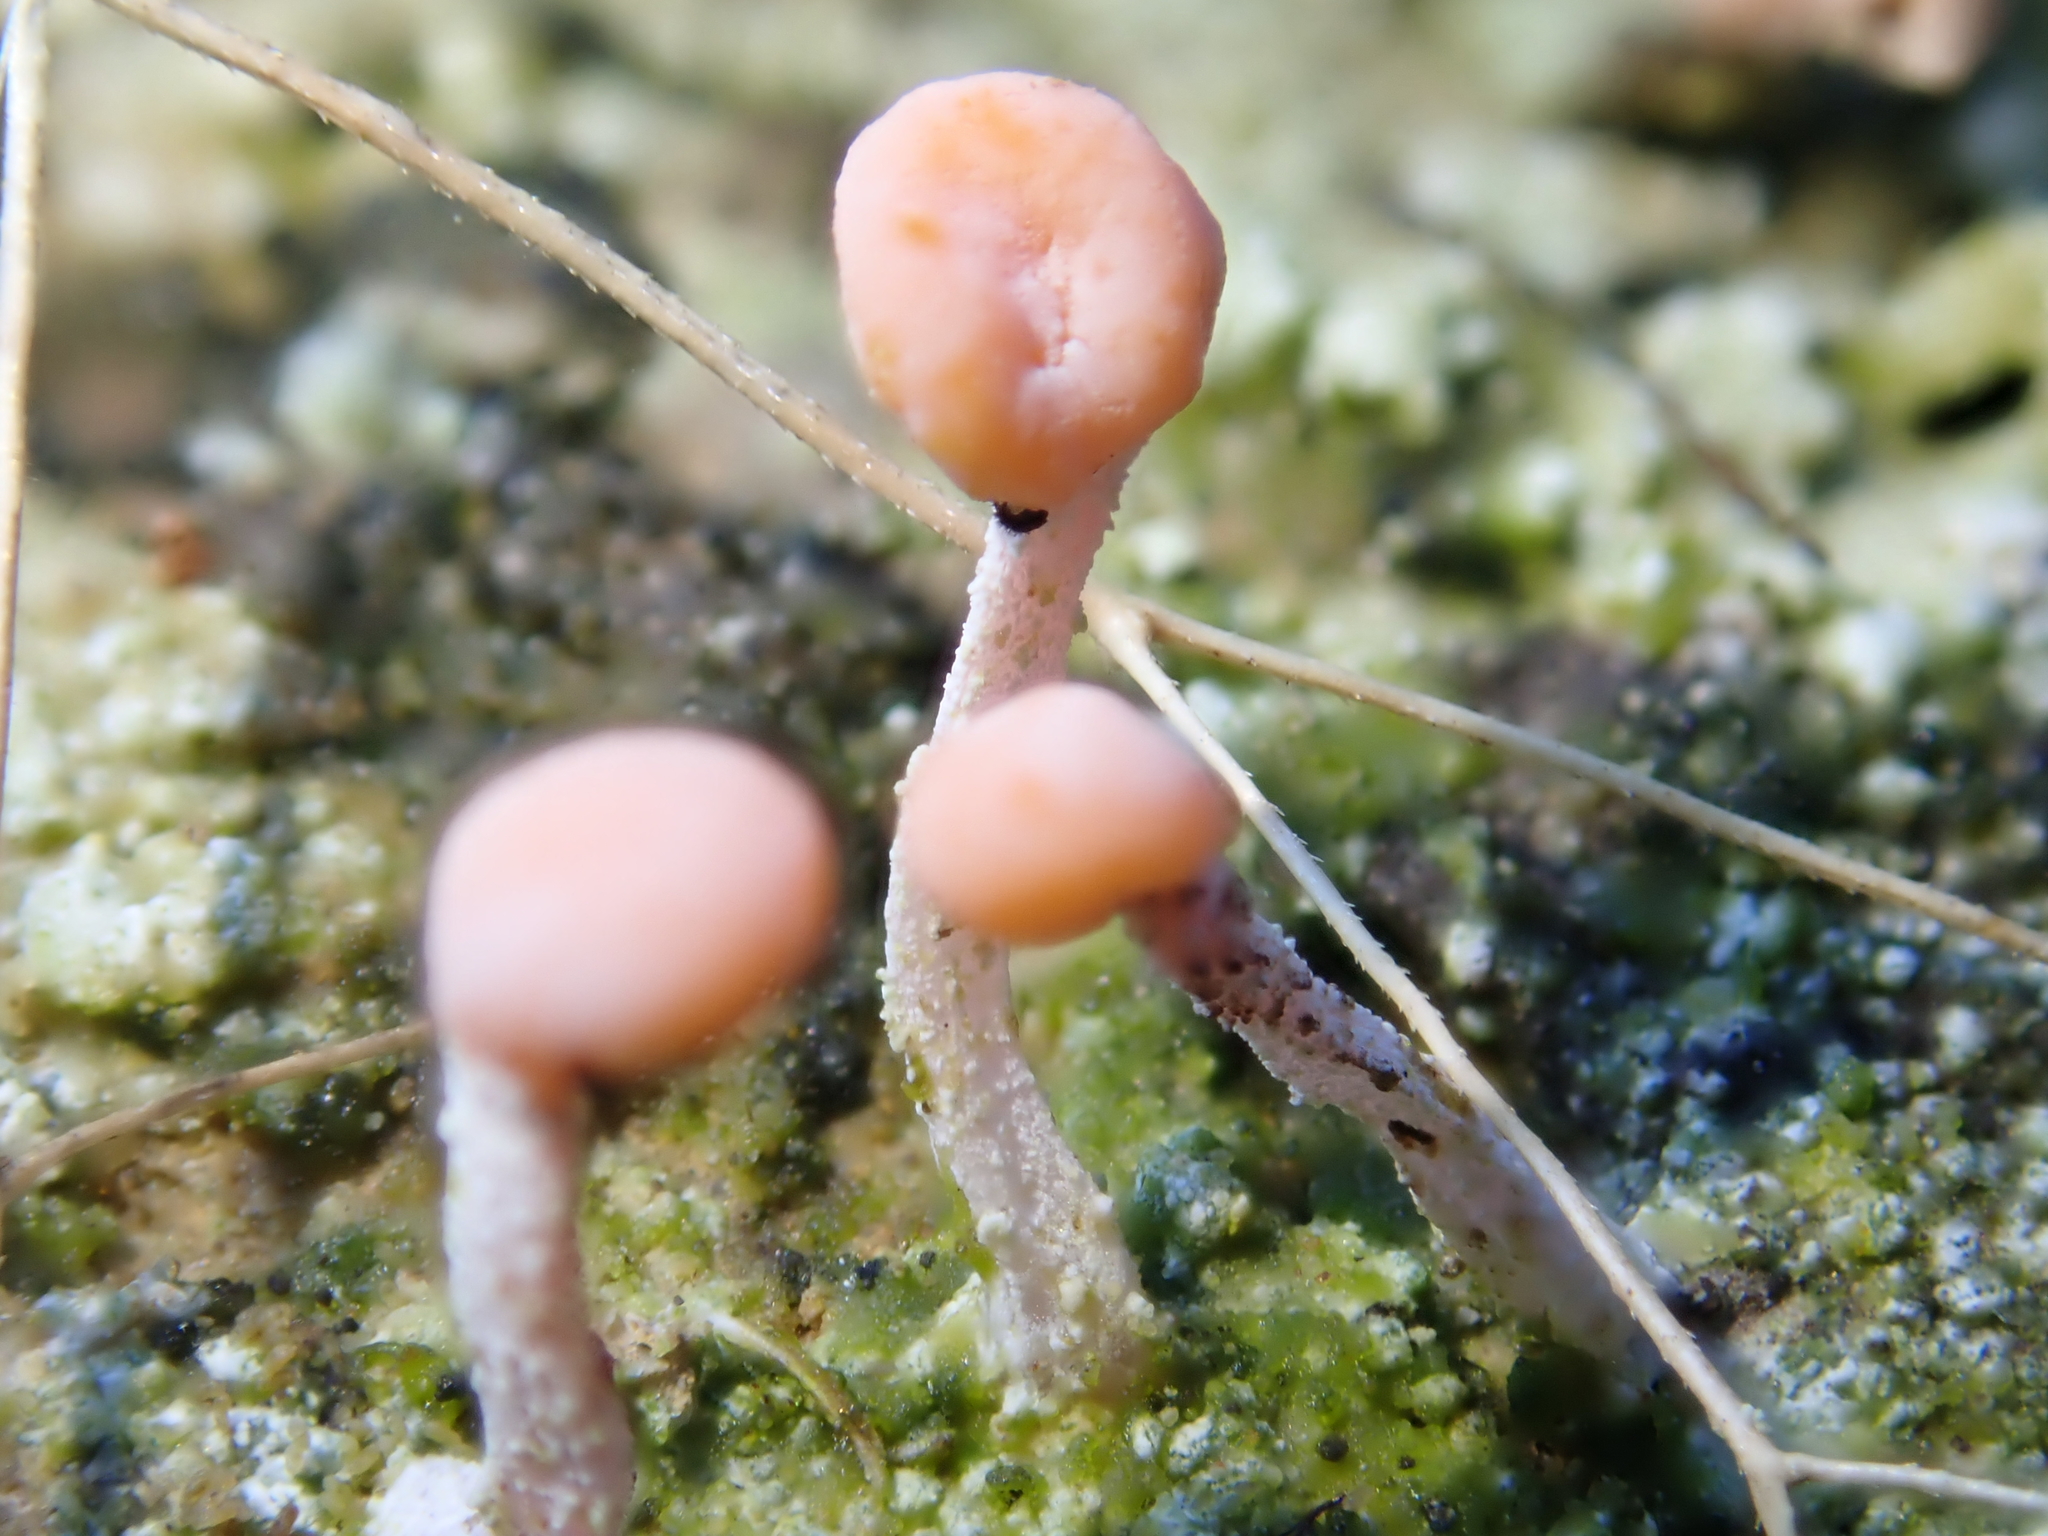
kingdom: Fungi
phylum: Ascomycota
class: Lecanoromycetes
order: Pertusariales
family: Icmadophilaceae
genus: Dibaeis
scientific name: Dibaeis arcuata
